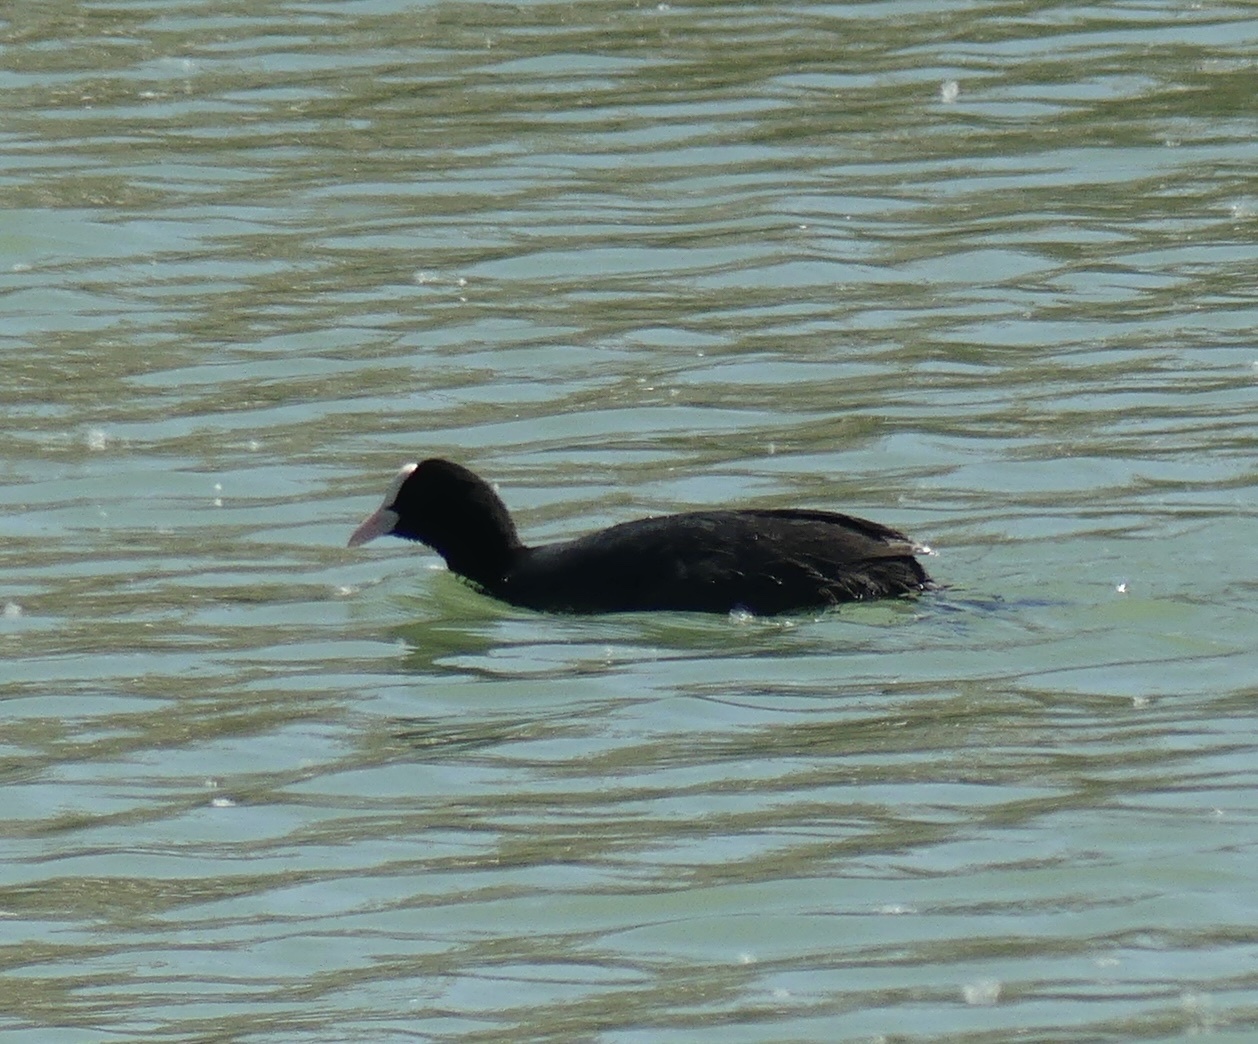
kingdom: Animalia
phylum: Chordata
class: Aves
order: Gruiformes
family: Rallidae
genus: Fulica
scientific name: Fulica atra
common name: Eurasian coot
